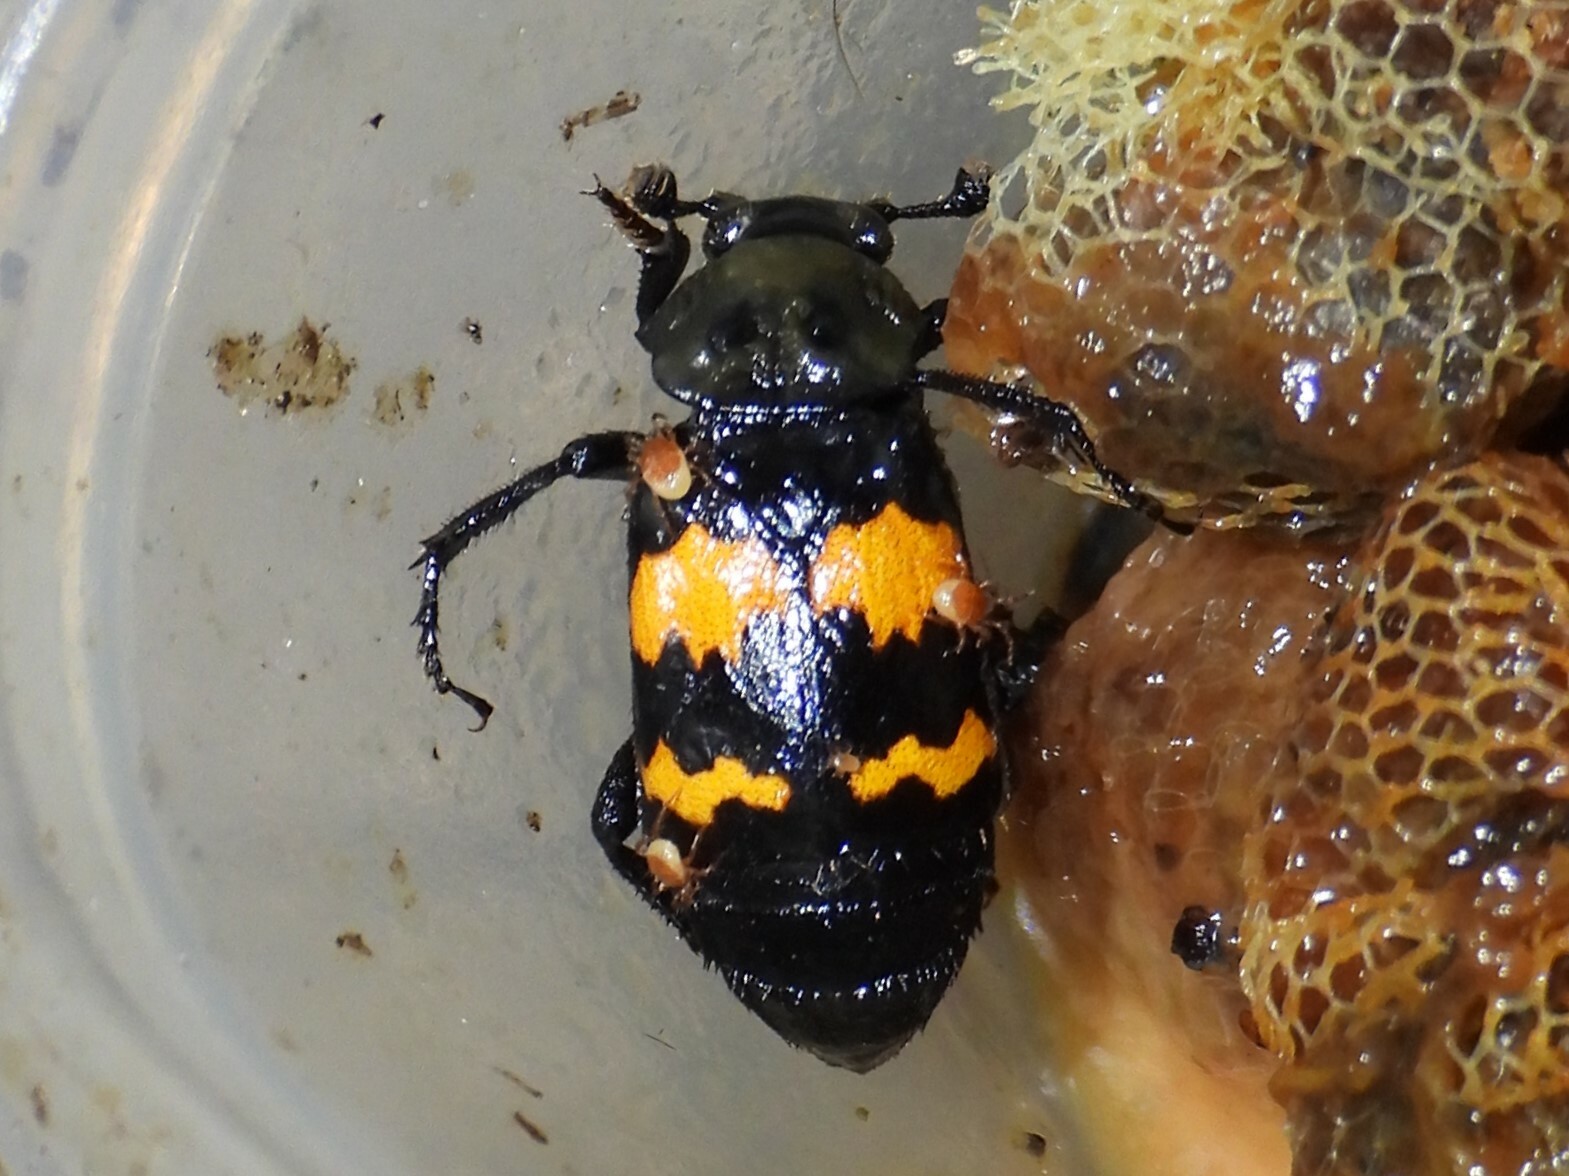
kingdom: Animalia
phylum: Arthropoda
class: Insecta
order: Coleoptera
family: Staphylinidae
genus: Nicrophorus
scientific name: Nicrophorus tomentosus
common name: Tomentose burying beetle
